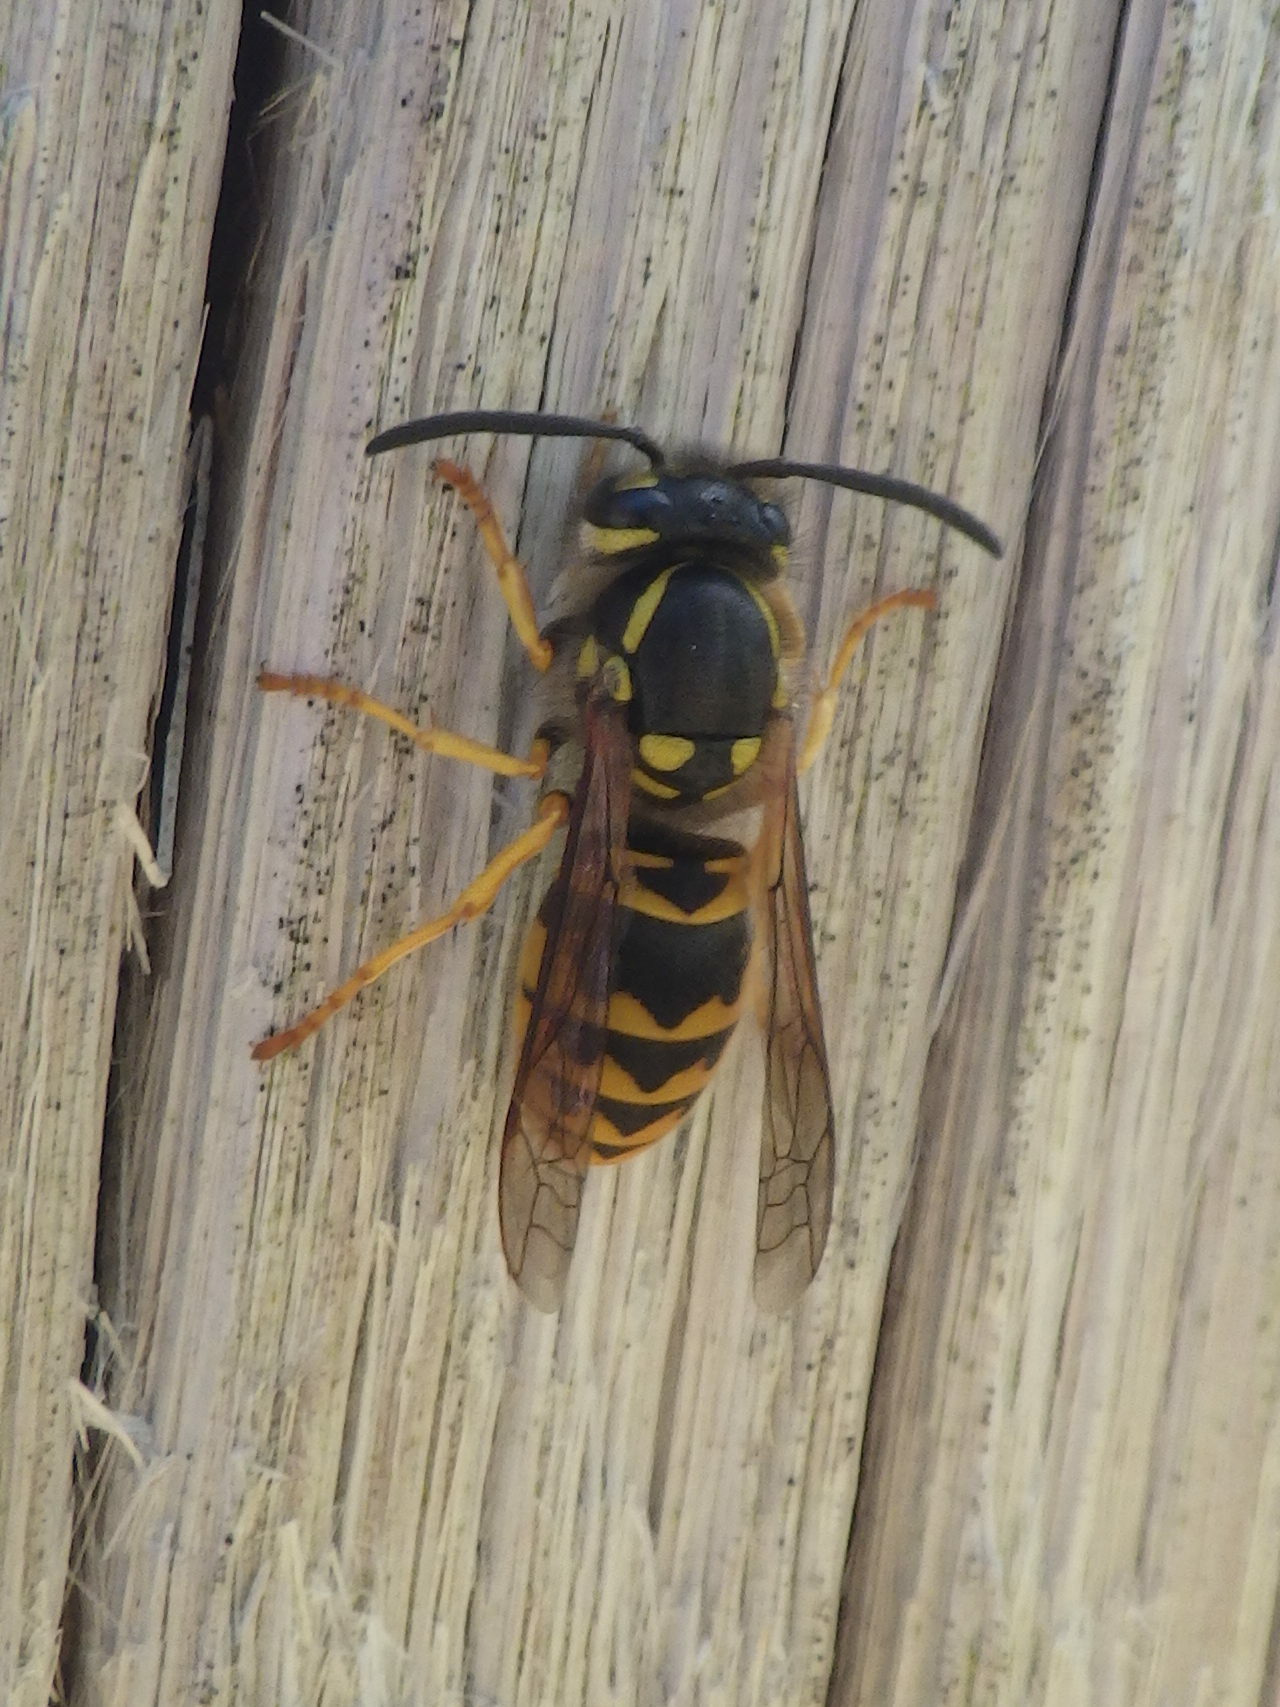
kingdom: Animalia
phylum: Arthropoda
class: Insecta
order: Hymenoptera
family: Vespidae
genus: Vespula
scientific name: Vespula germanica
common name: German wasp
